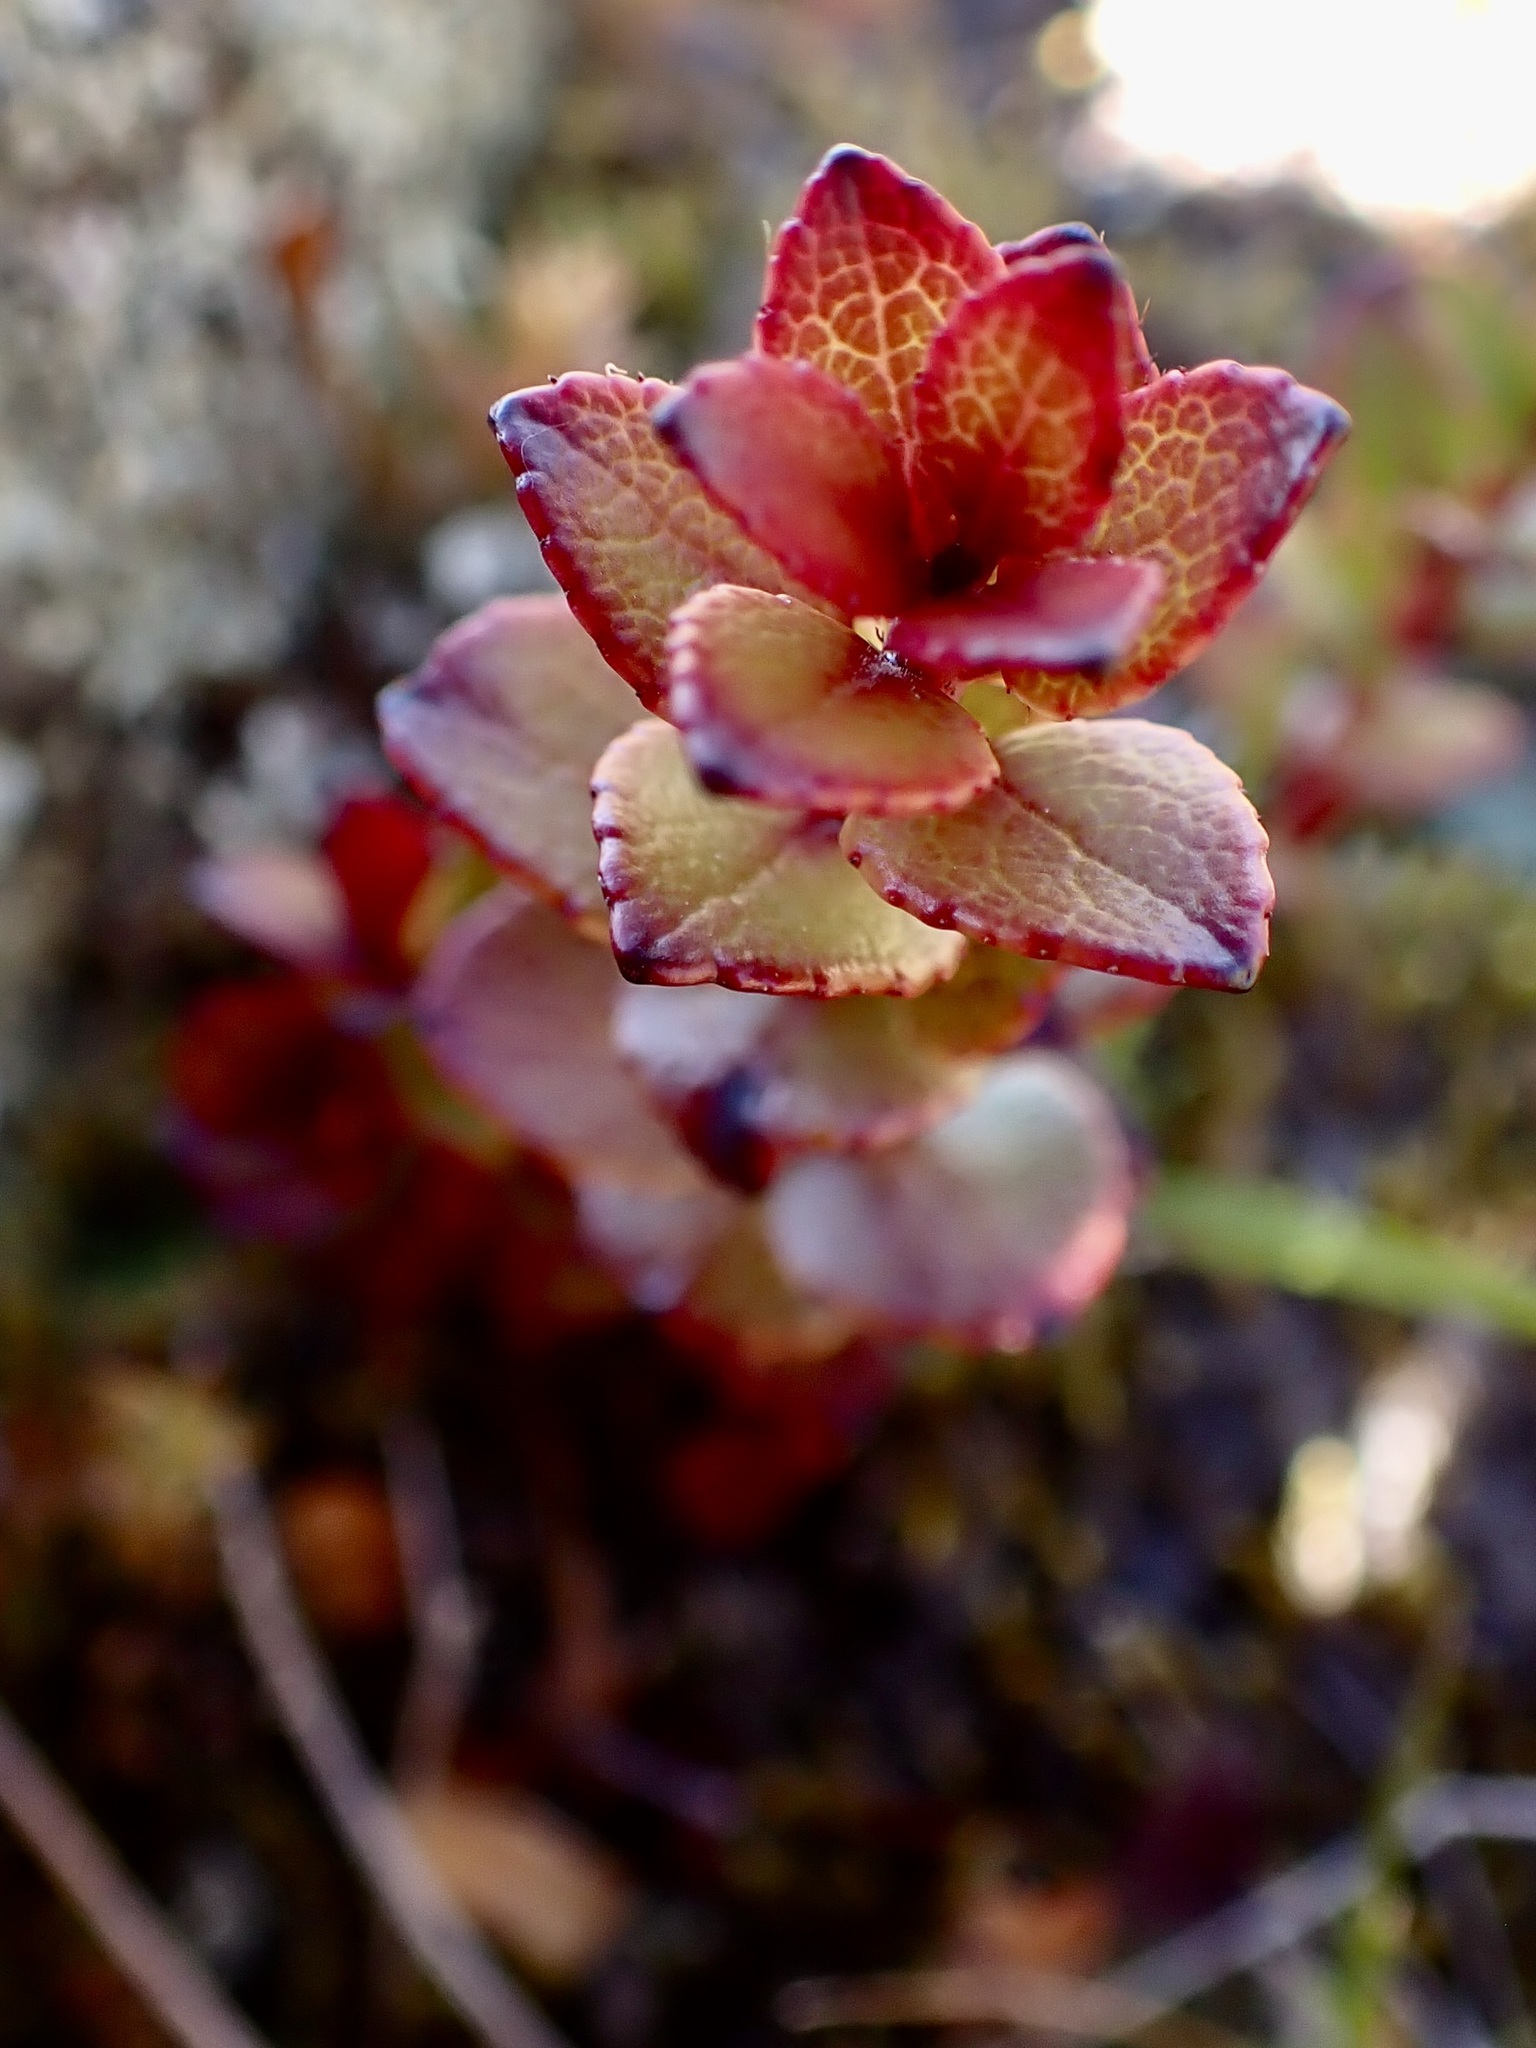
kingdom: Plantae
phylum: Tracheophyta
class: Magnoliopsida
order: Ericales
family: Ericaceae
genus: Gaultheria
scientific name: Gaultheria depressa
